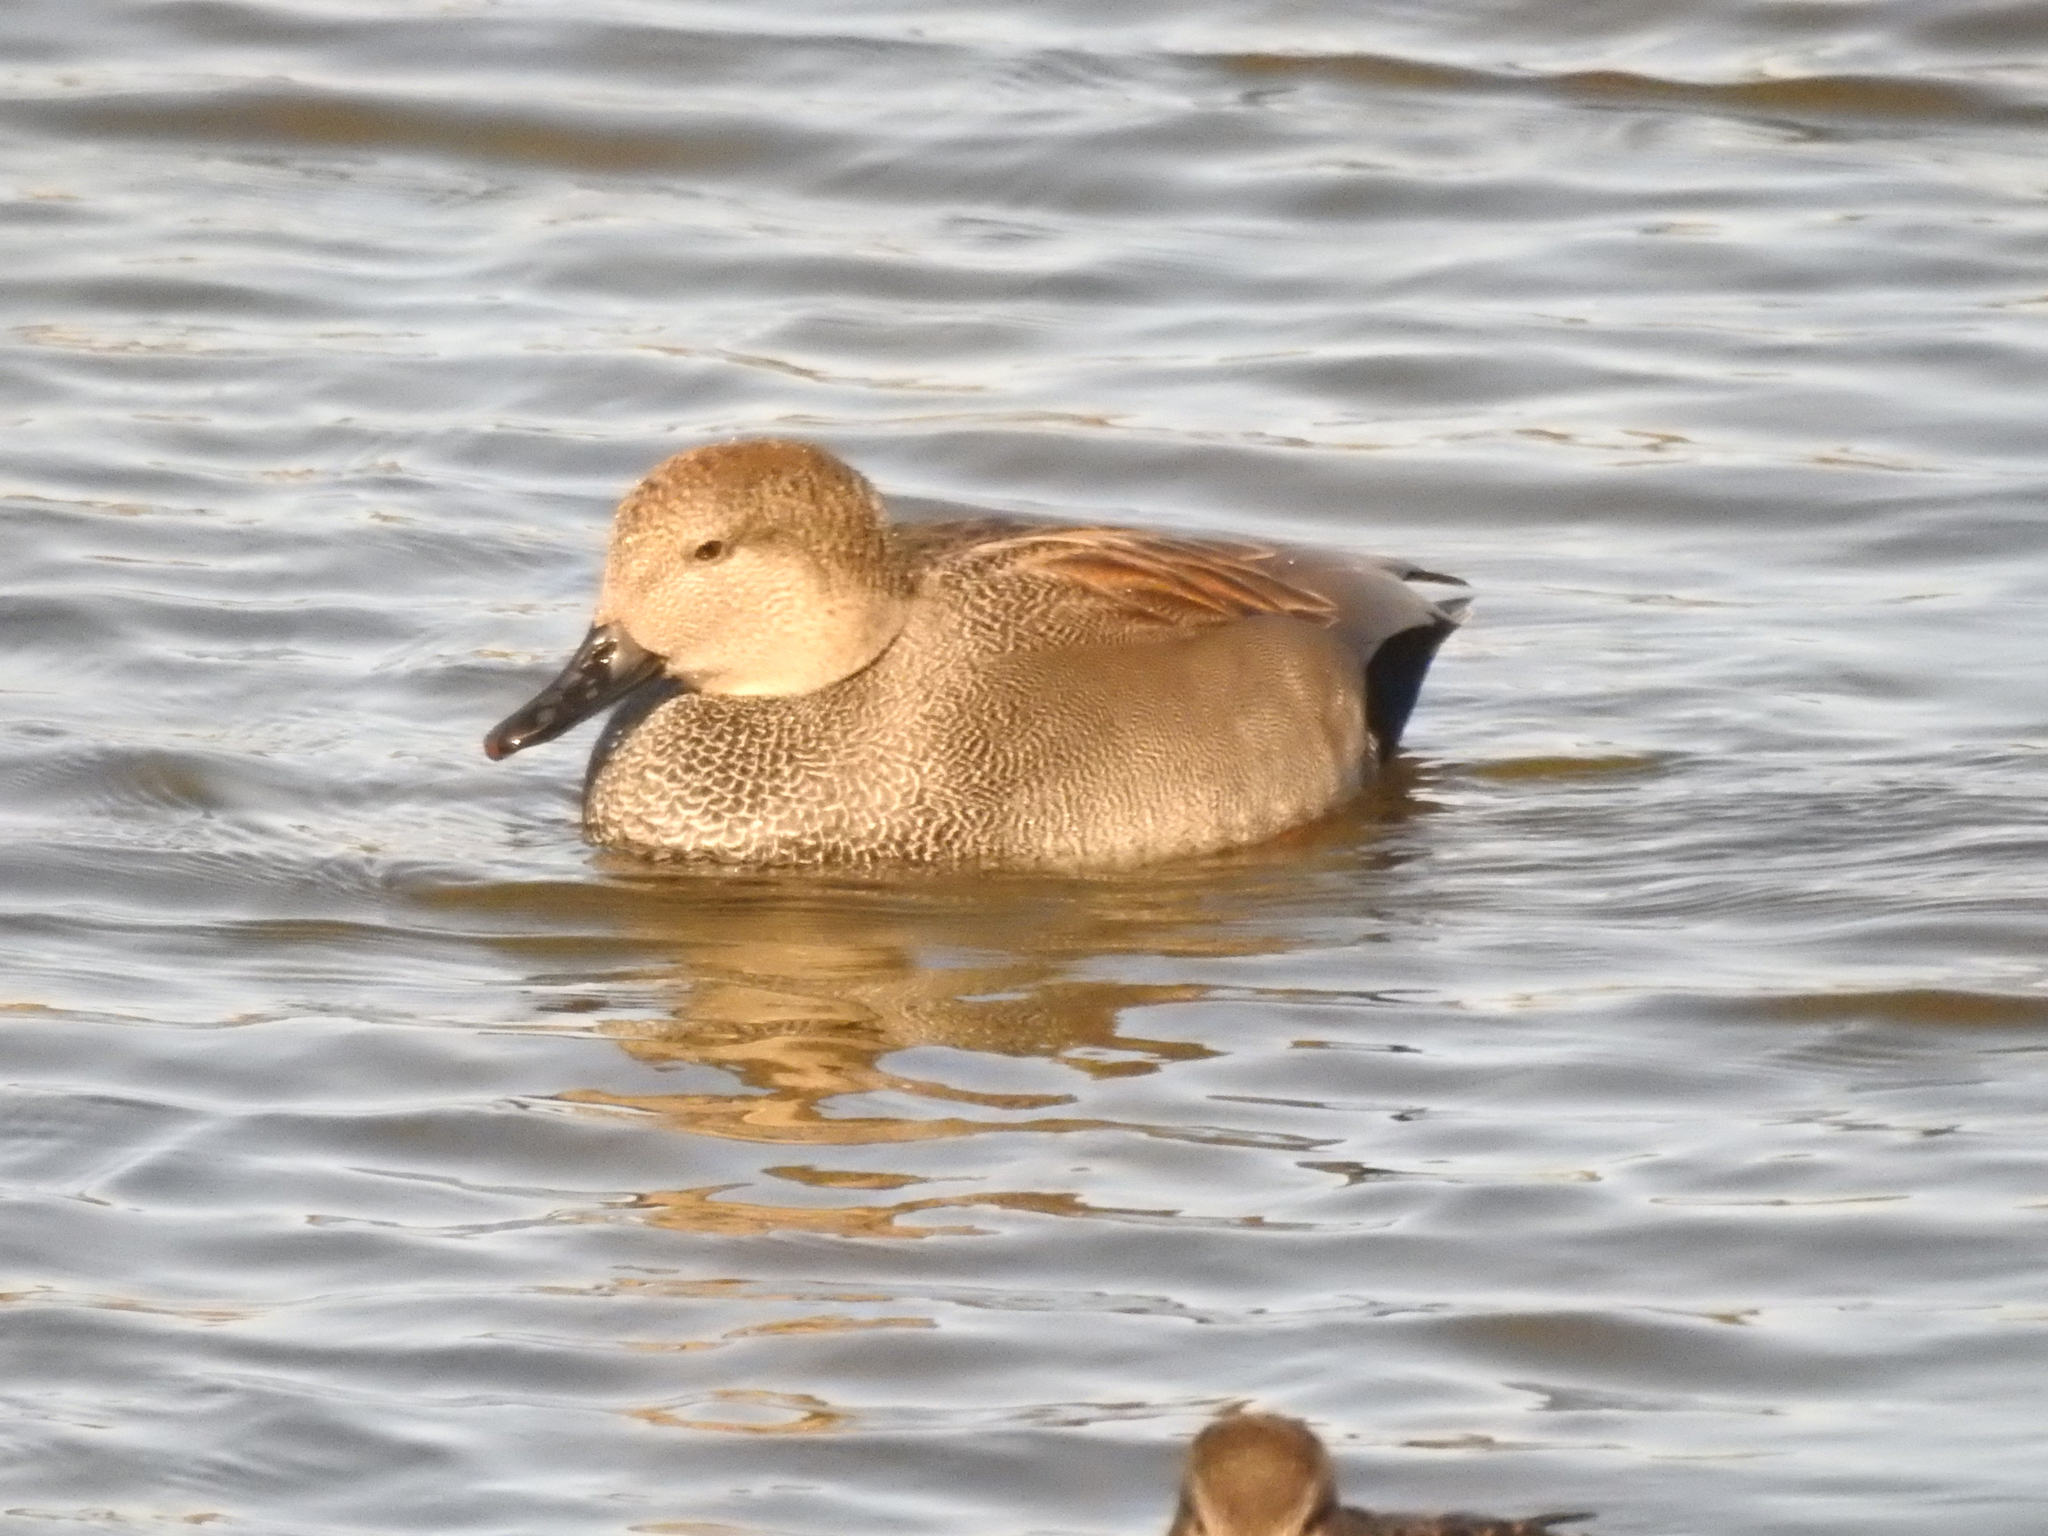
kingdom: Animalia
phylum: Chordata
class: Aves
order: Anseriformes
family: Anatidae
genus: Mareca
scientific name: Mareca strepera
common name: Gadwall
